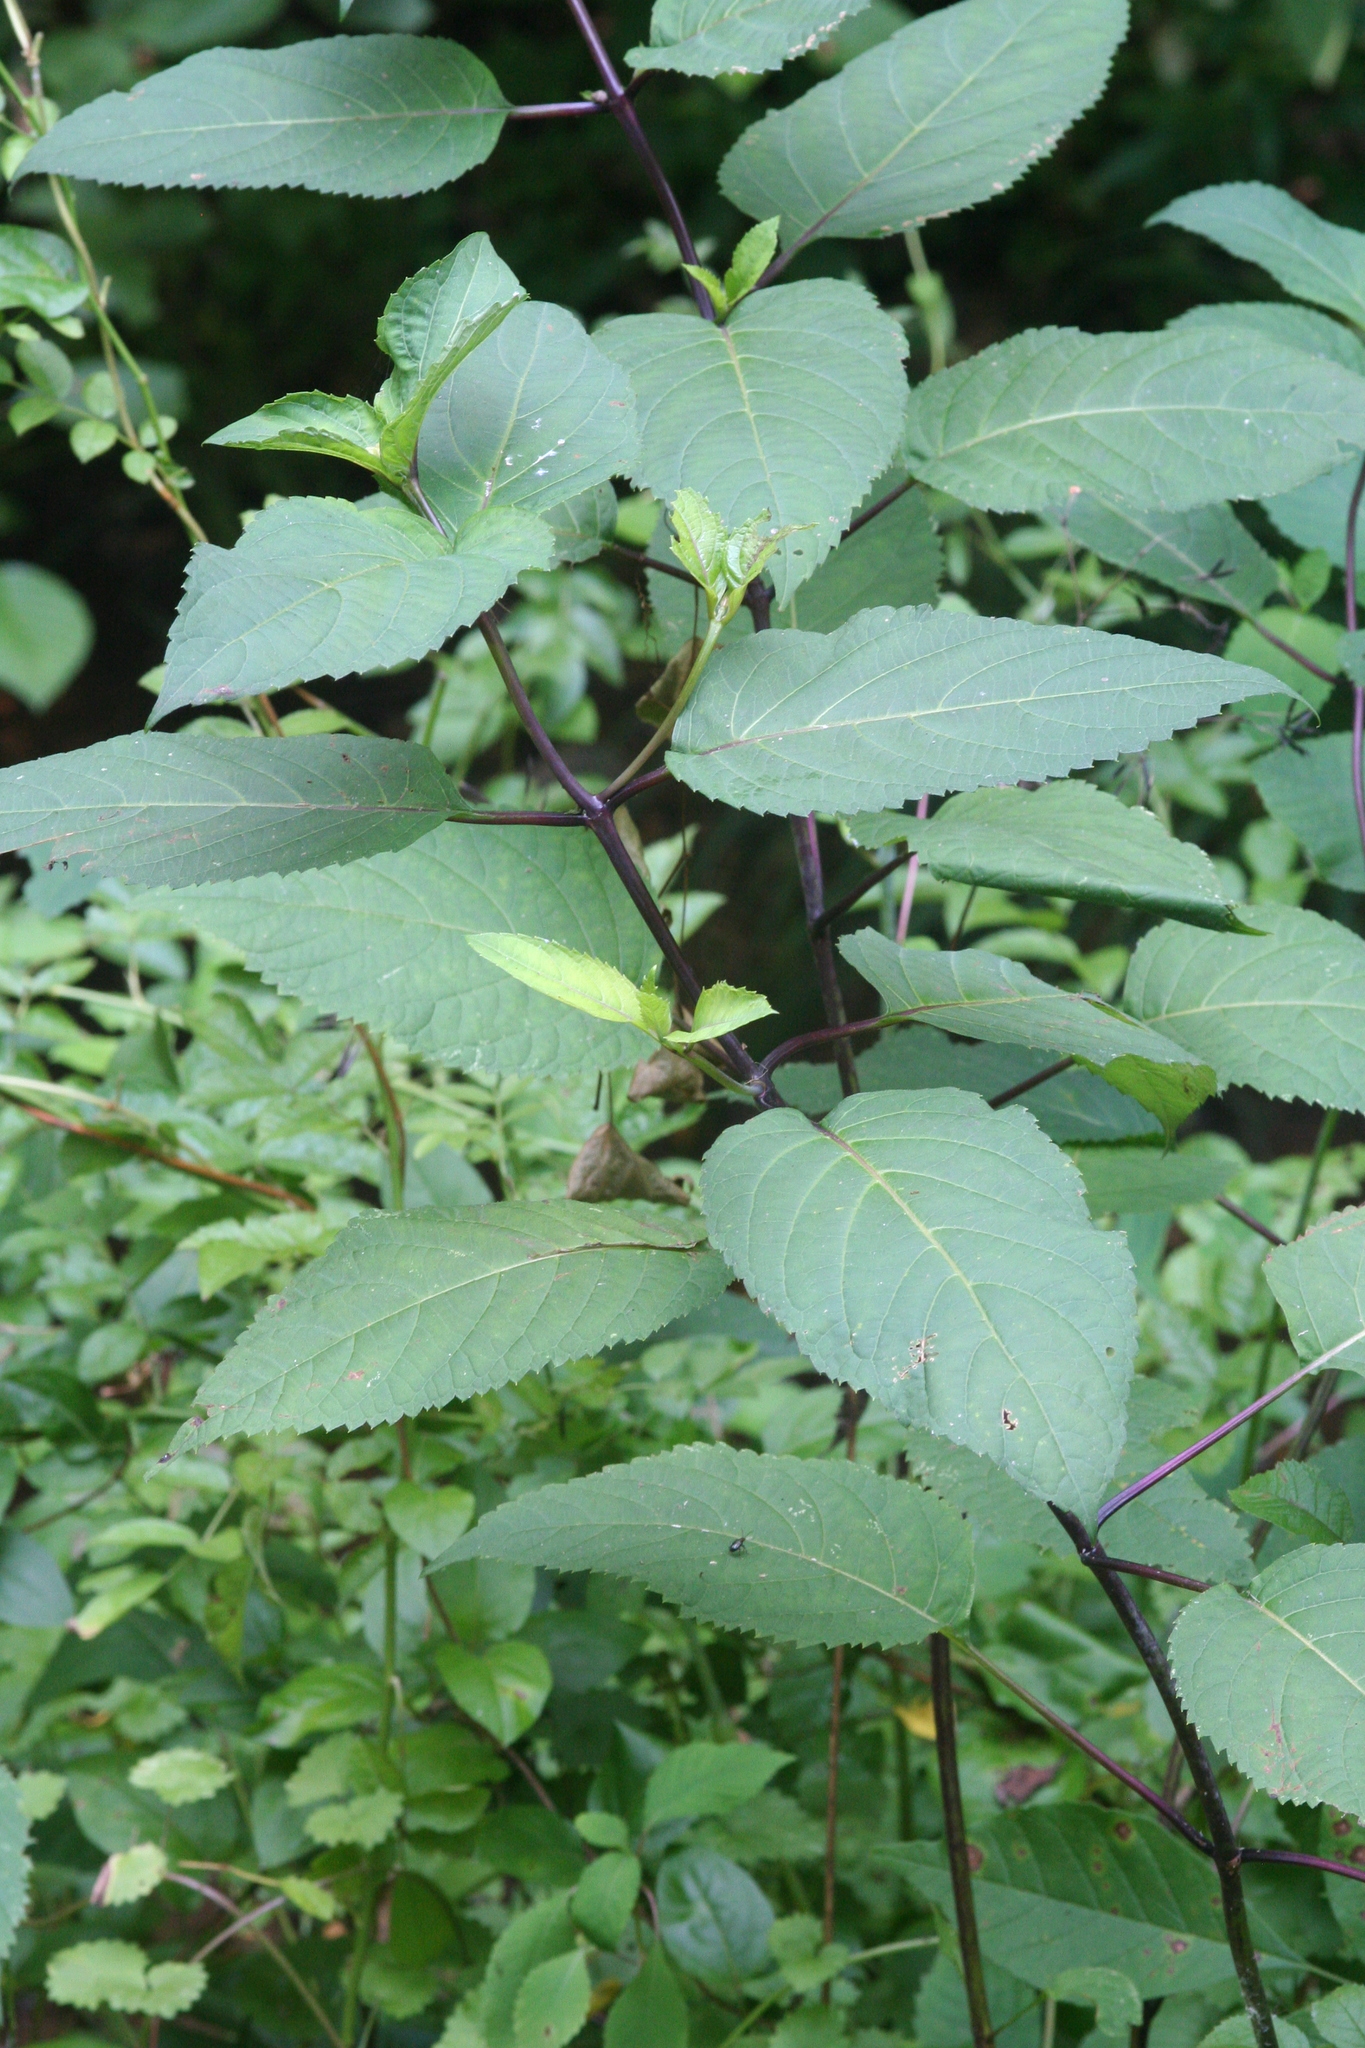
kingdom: Plantae
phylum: Tracheophyta
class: Magnoliopsida
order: Lamiales
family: Lamiaceae
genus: Collinsonia
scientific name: Collinsonia canadensis
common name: Northern horsebalm
